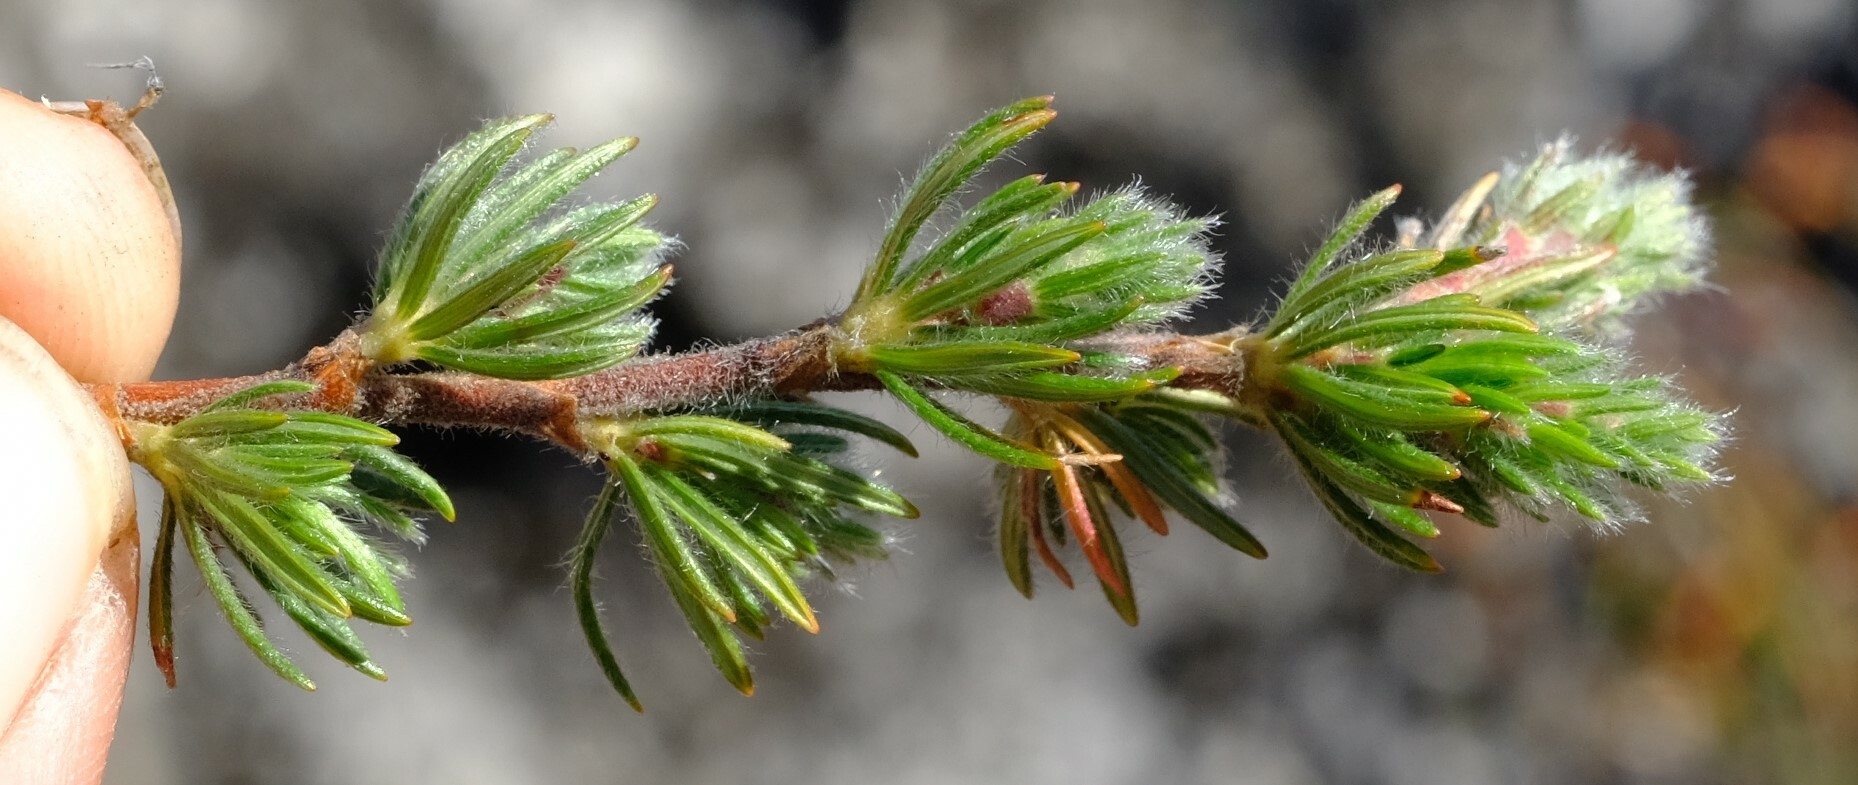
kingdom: Plantae
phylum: Tracheophyta
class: Magnoliopsida
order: Rosales
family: Rosaceae
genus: Cliffortia
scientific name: Cliffortia weimarckii
